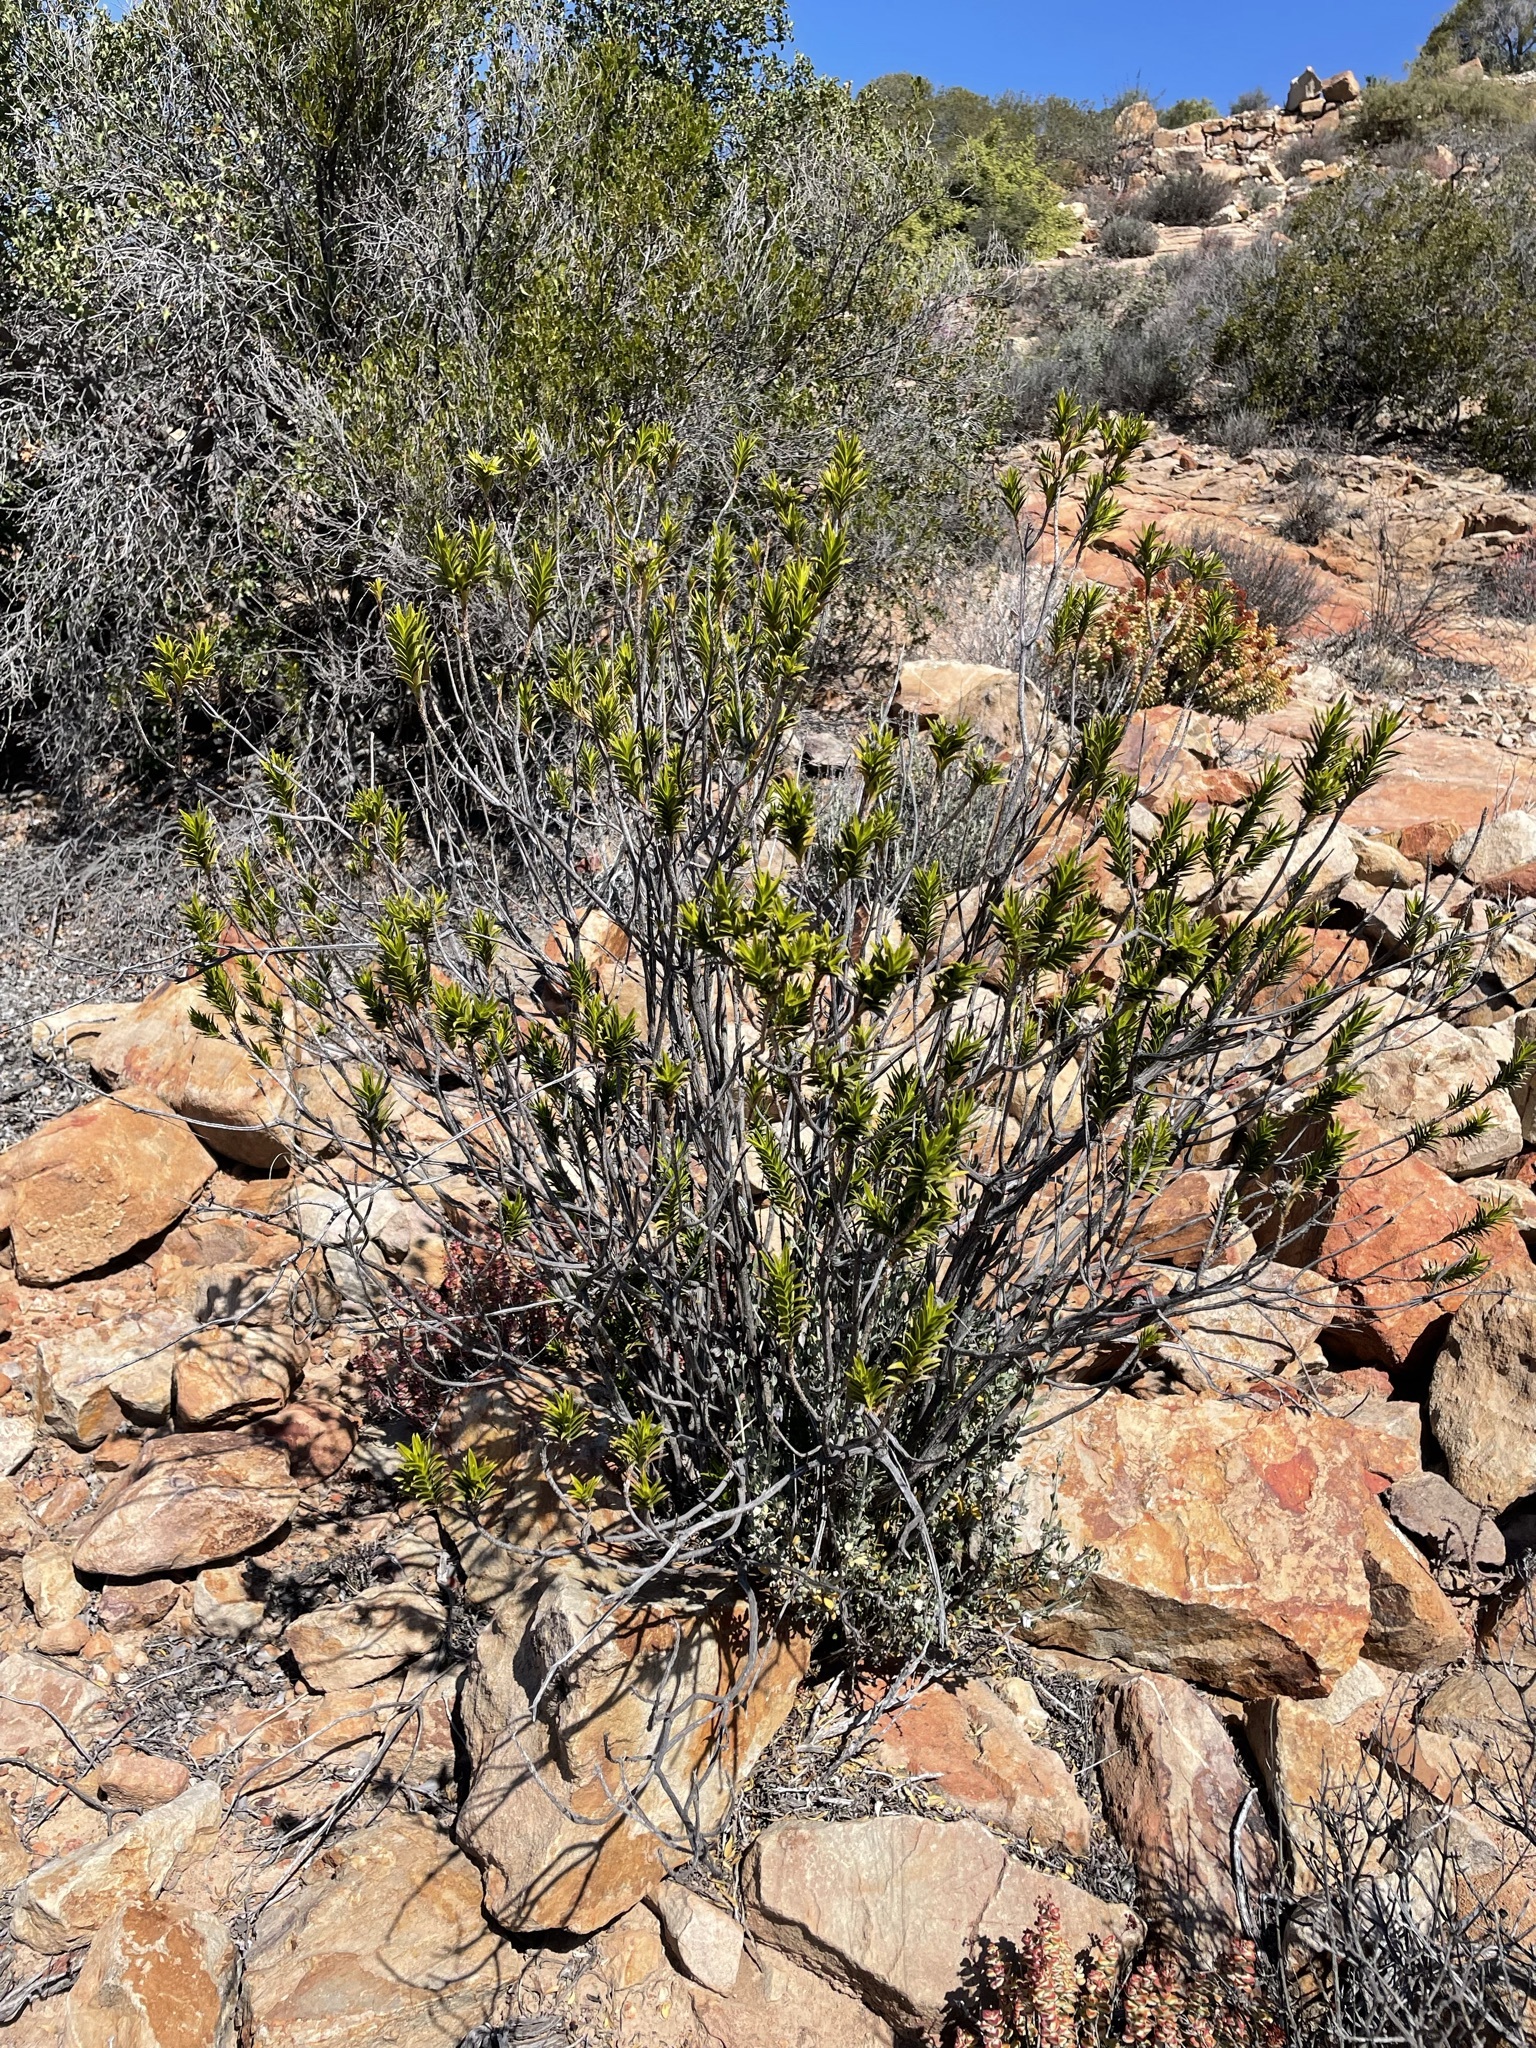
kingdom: Plantae
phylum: Tracheophyta
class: Magnoliopsida
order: Asterales
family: Asteraceae
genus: Pteronia
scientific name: Pteronia fasciculata
